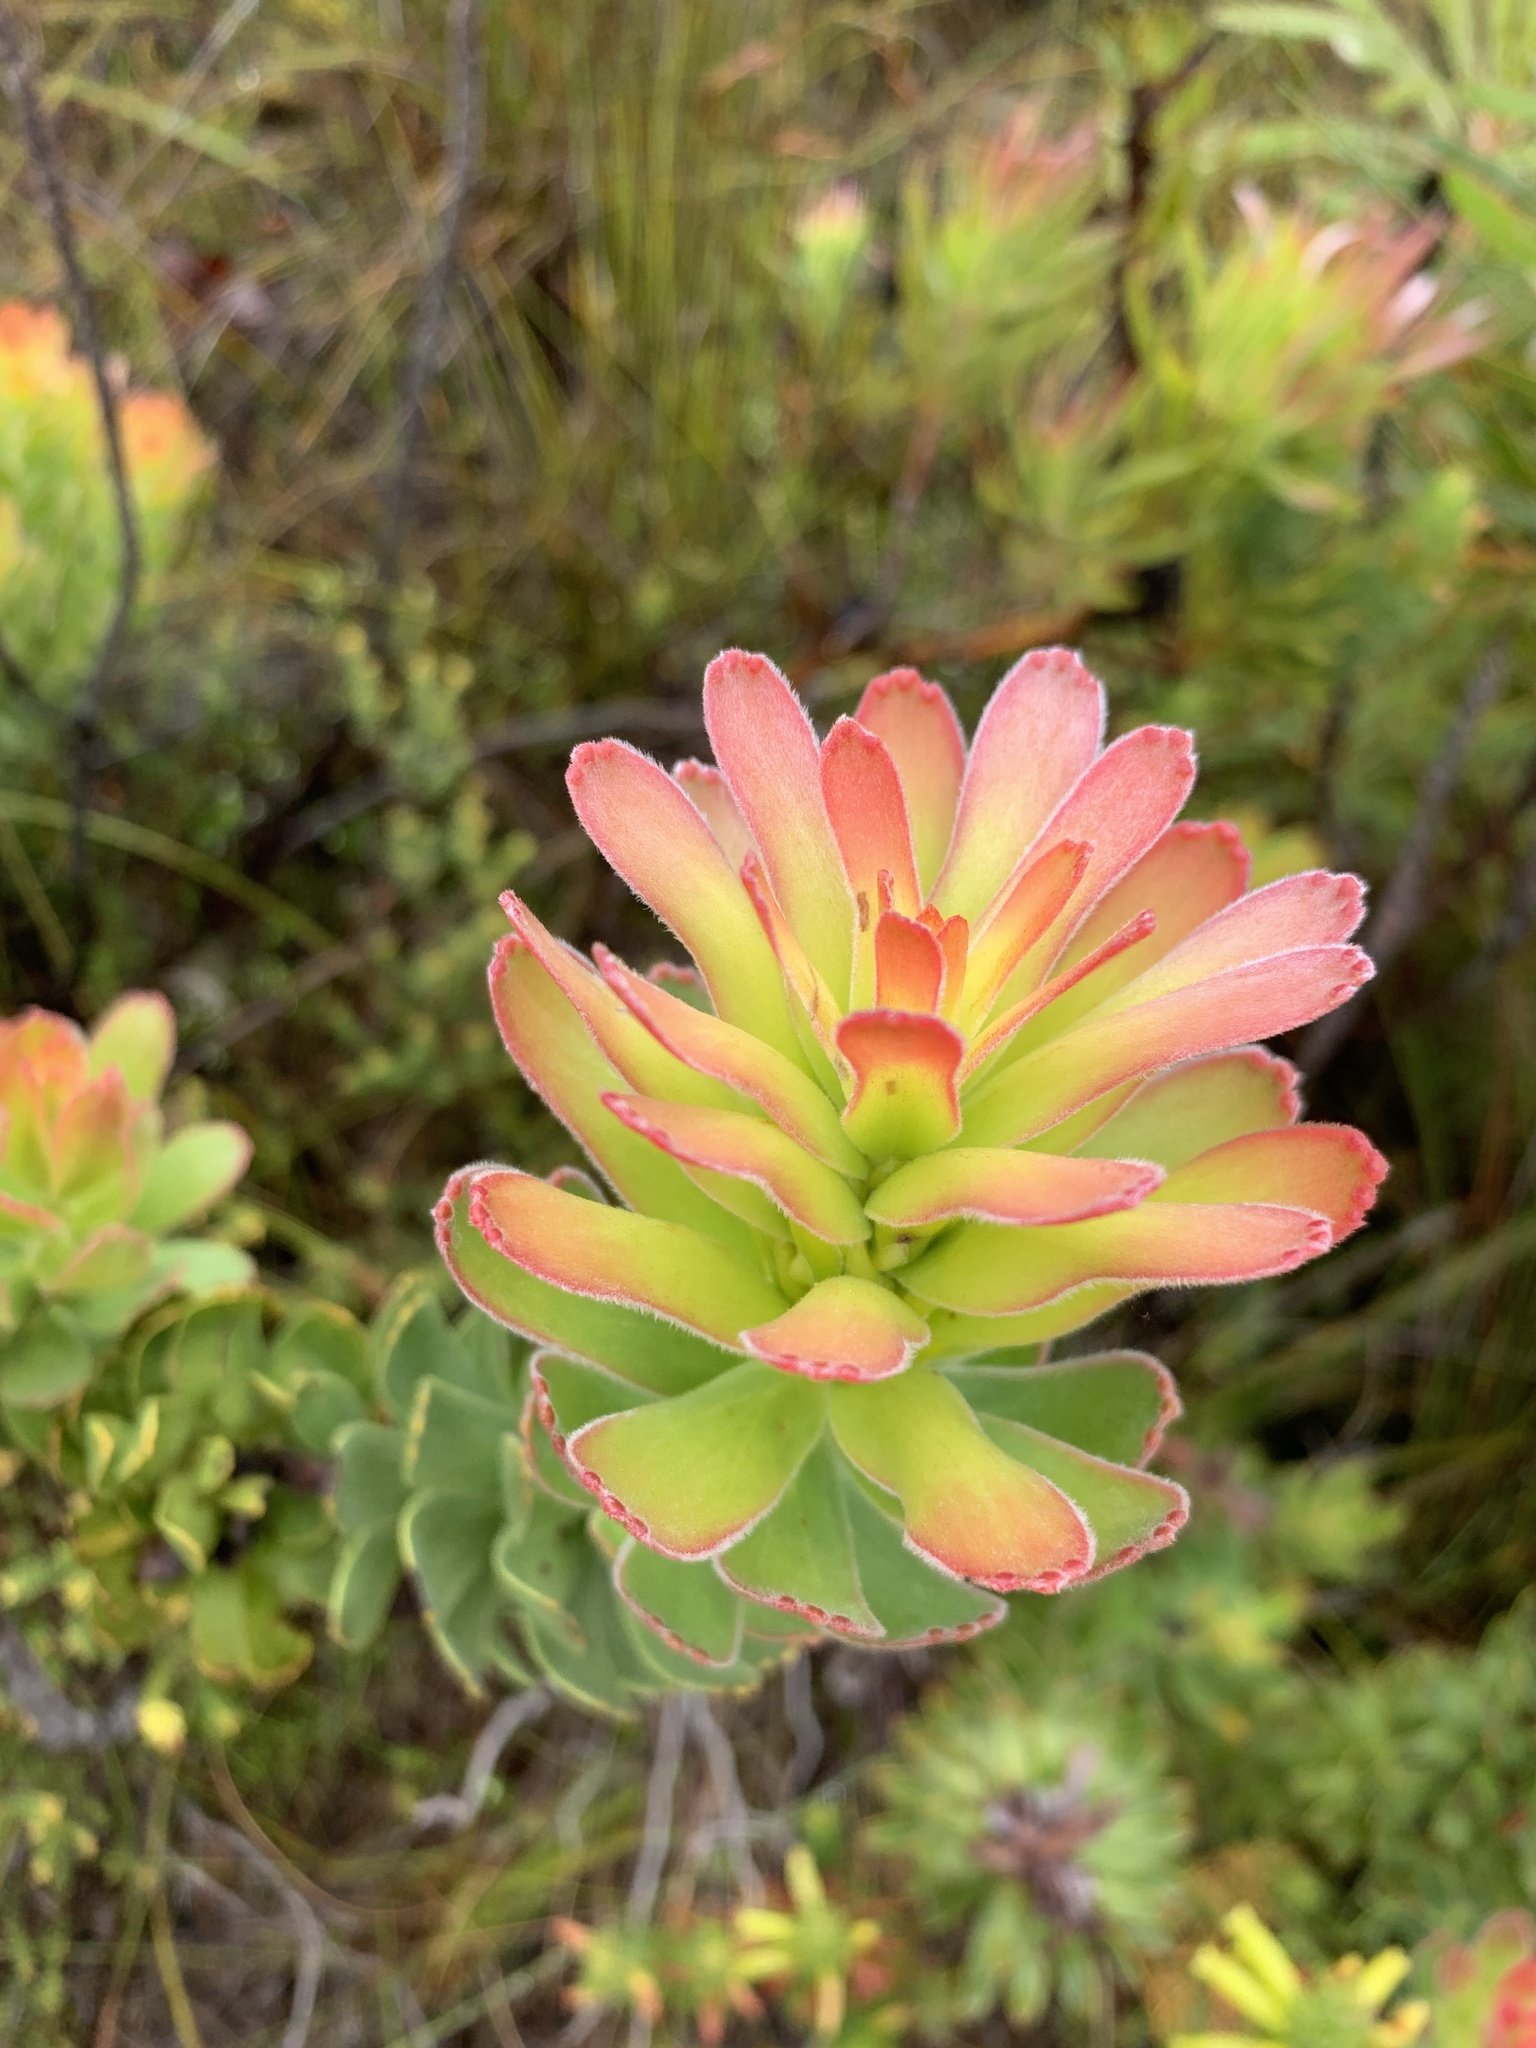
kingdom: Plantae
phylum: Tracheophyta
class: Magnoliopsida
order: Proteales
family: Proteaceae
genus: Mimetes
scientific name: Mimetes cucullatus
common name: Common pagoda
